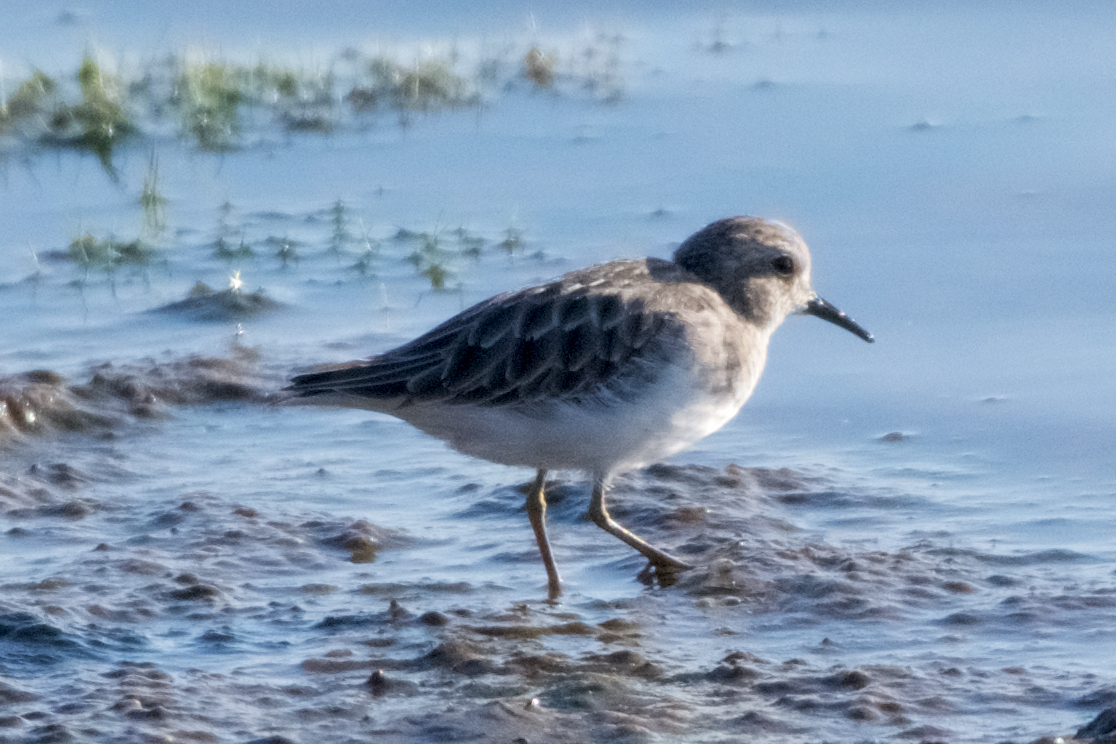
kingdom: Animalia
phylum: Chordata
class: Aves
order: Charadriiformes
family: Scolopacidae
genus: Calidris
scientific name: Calidris minutilla
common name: Least sandpiper
